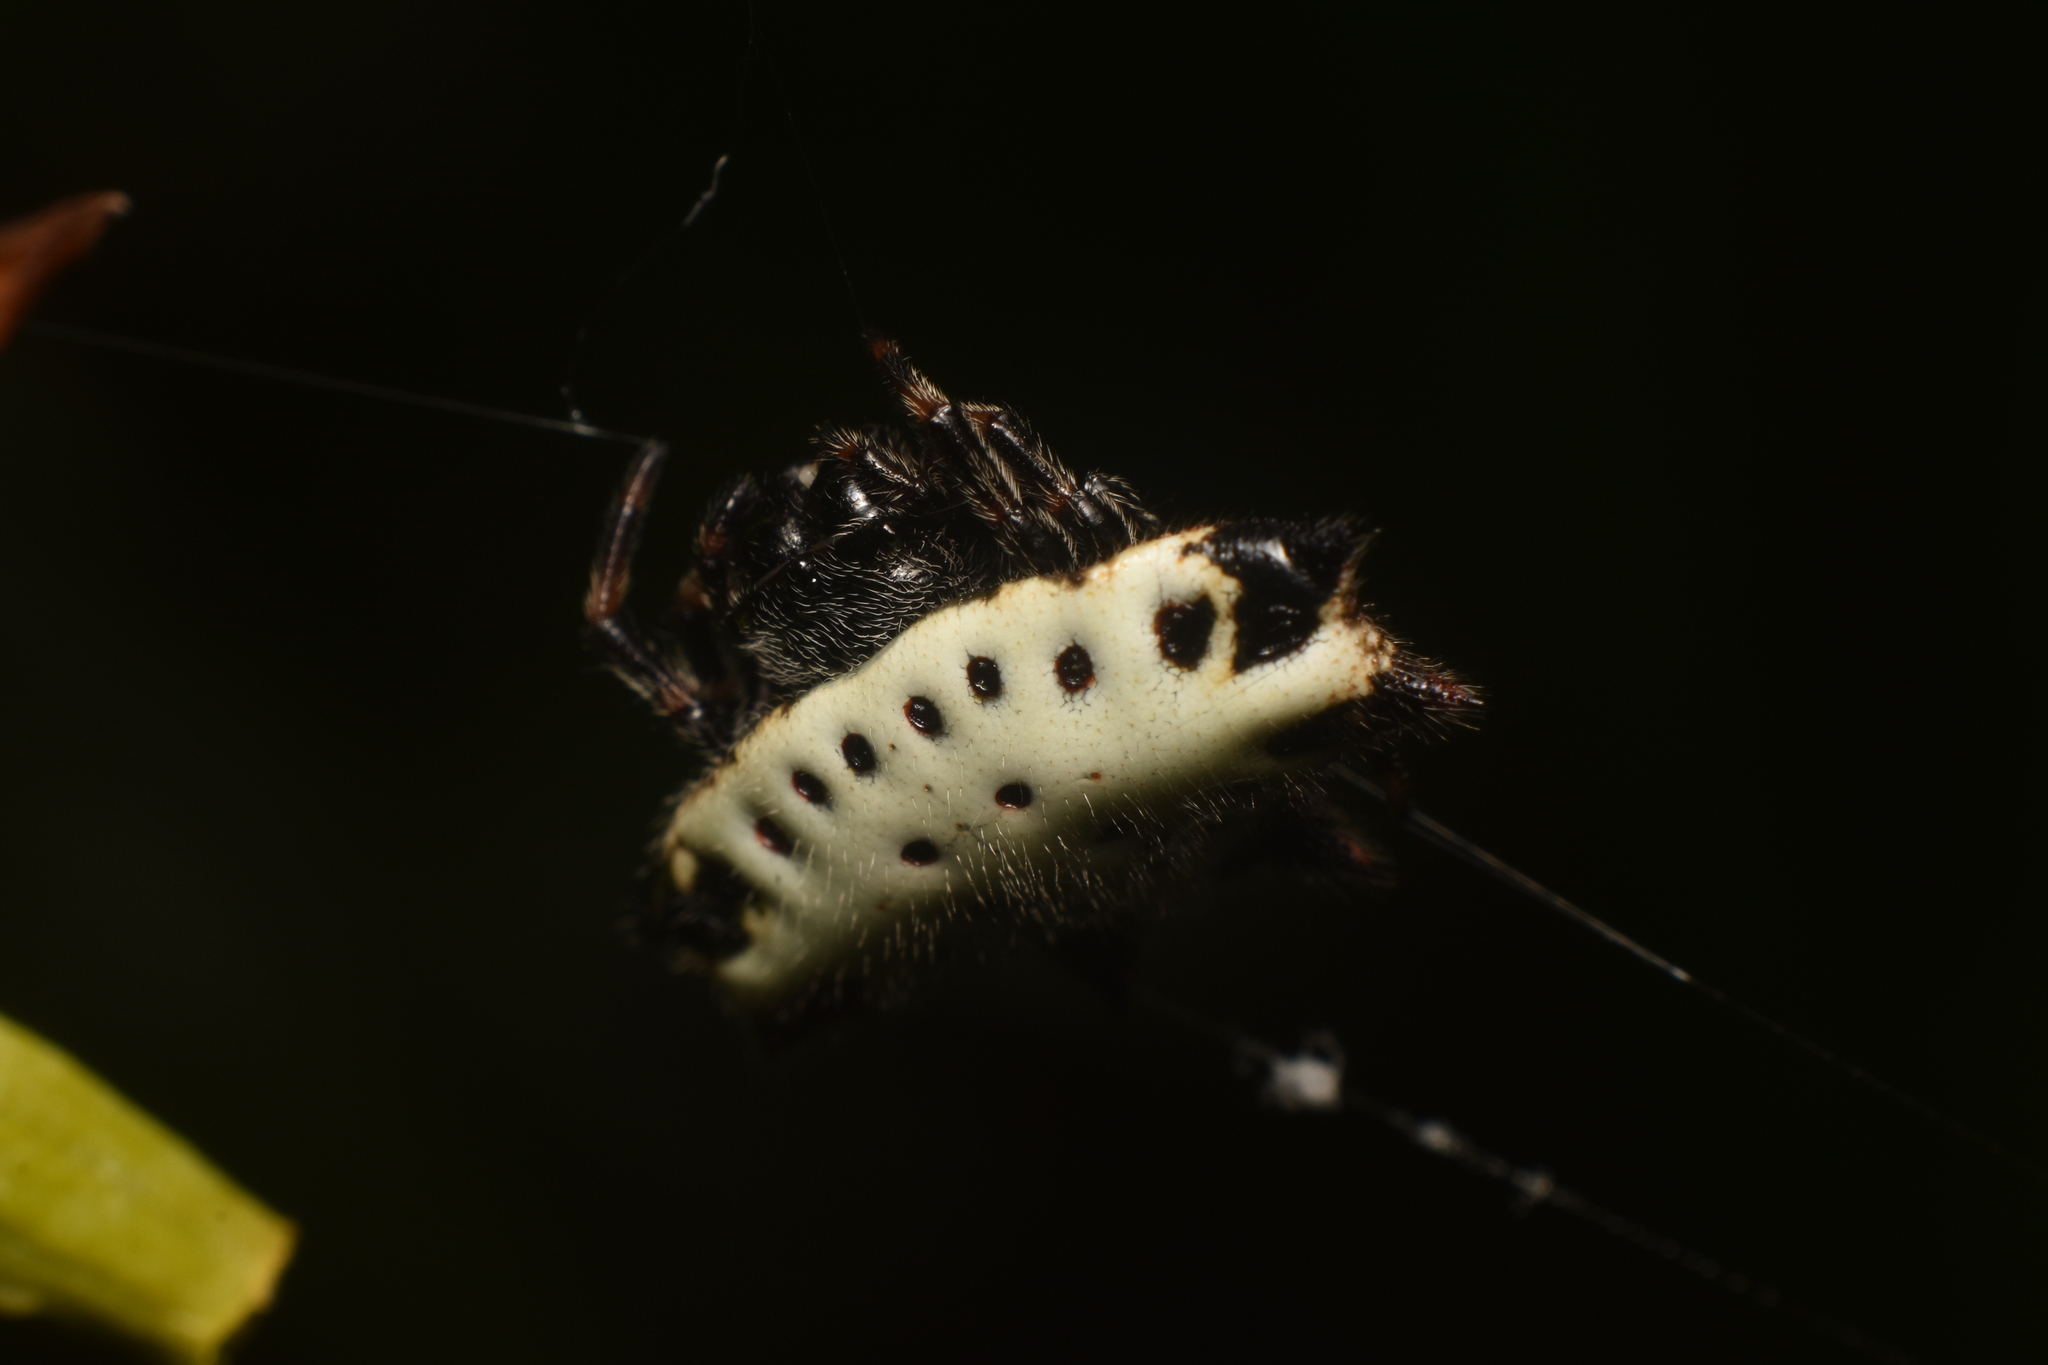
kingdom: Animalia
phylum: Arthropoda
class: Arachnida
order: Araneae
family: Araneidae
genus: Gasteracantha
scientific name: Gasteracantha cancriformis
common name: Orb weavers
